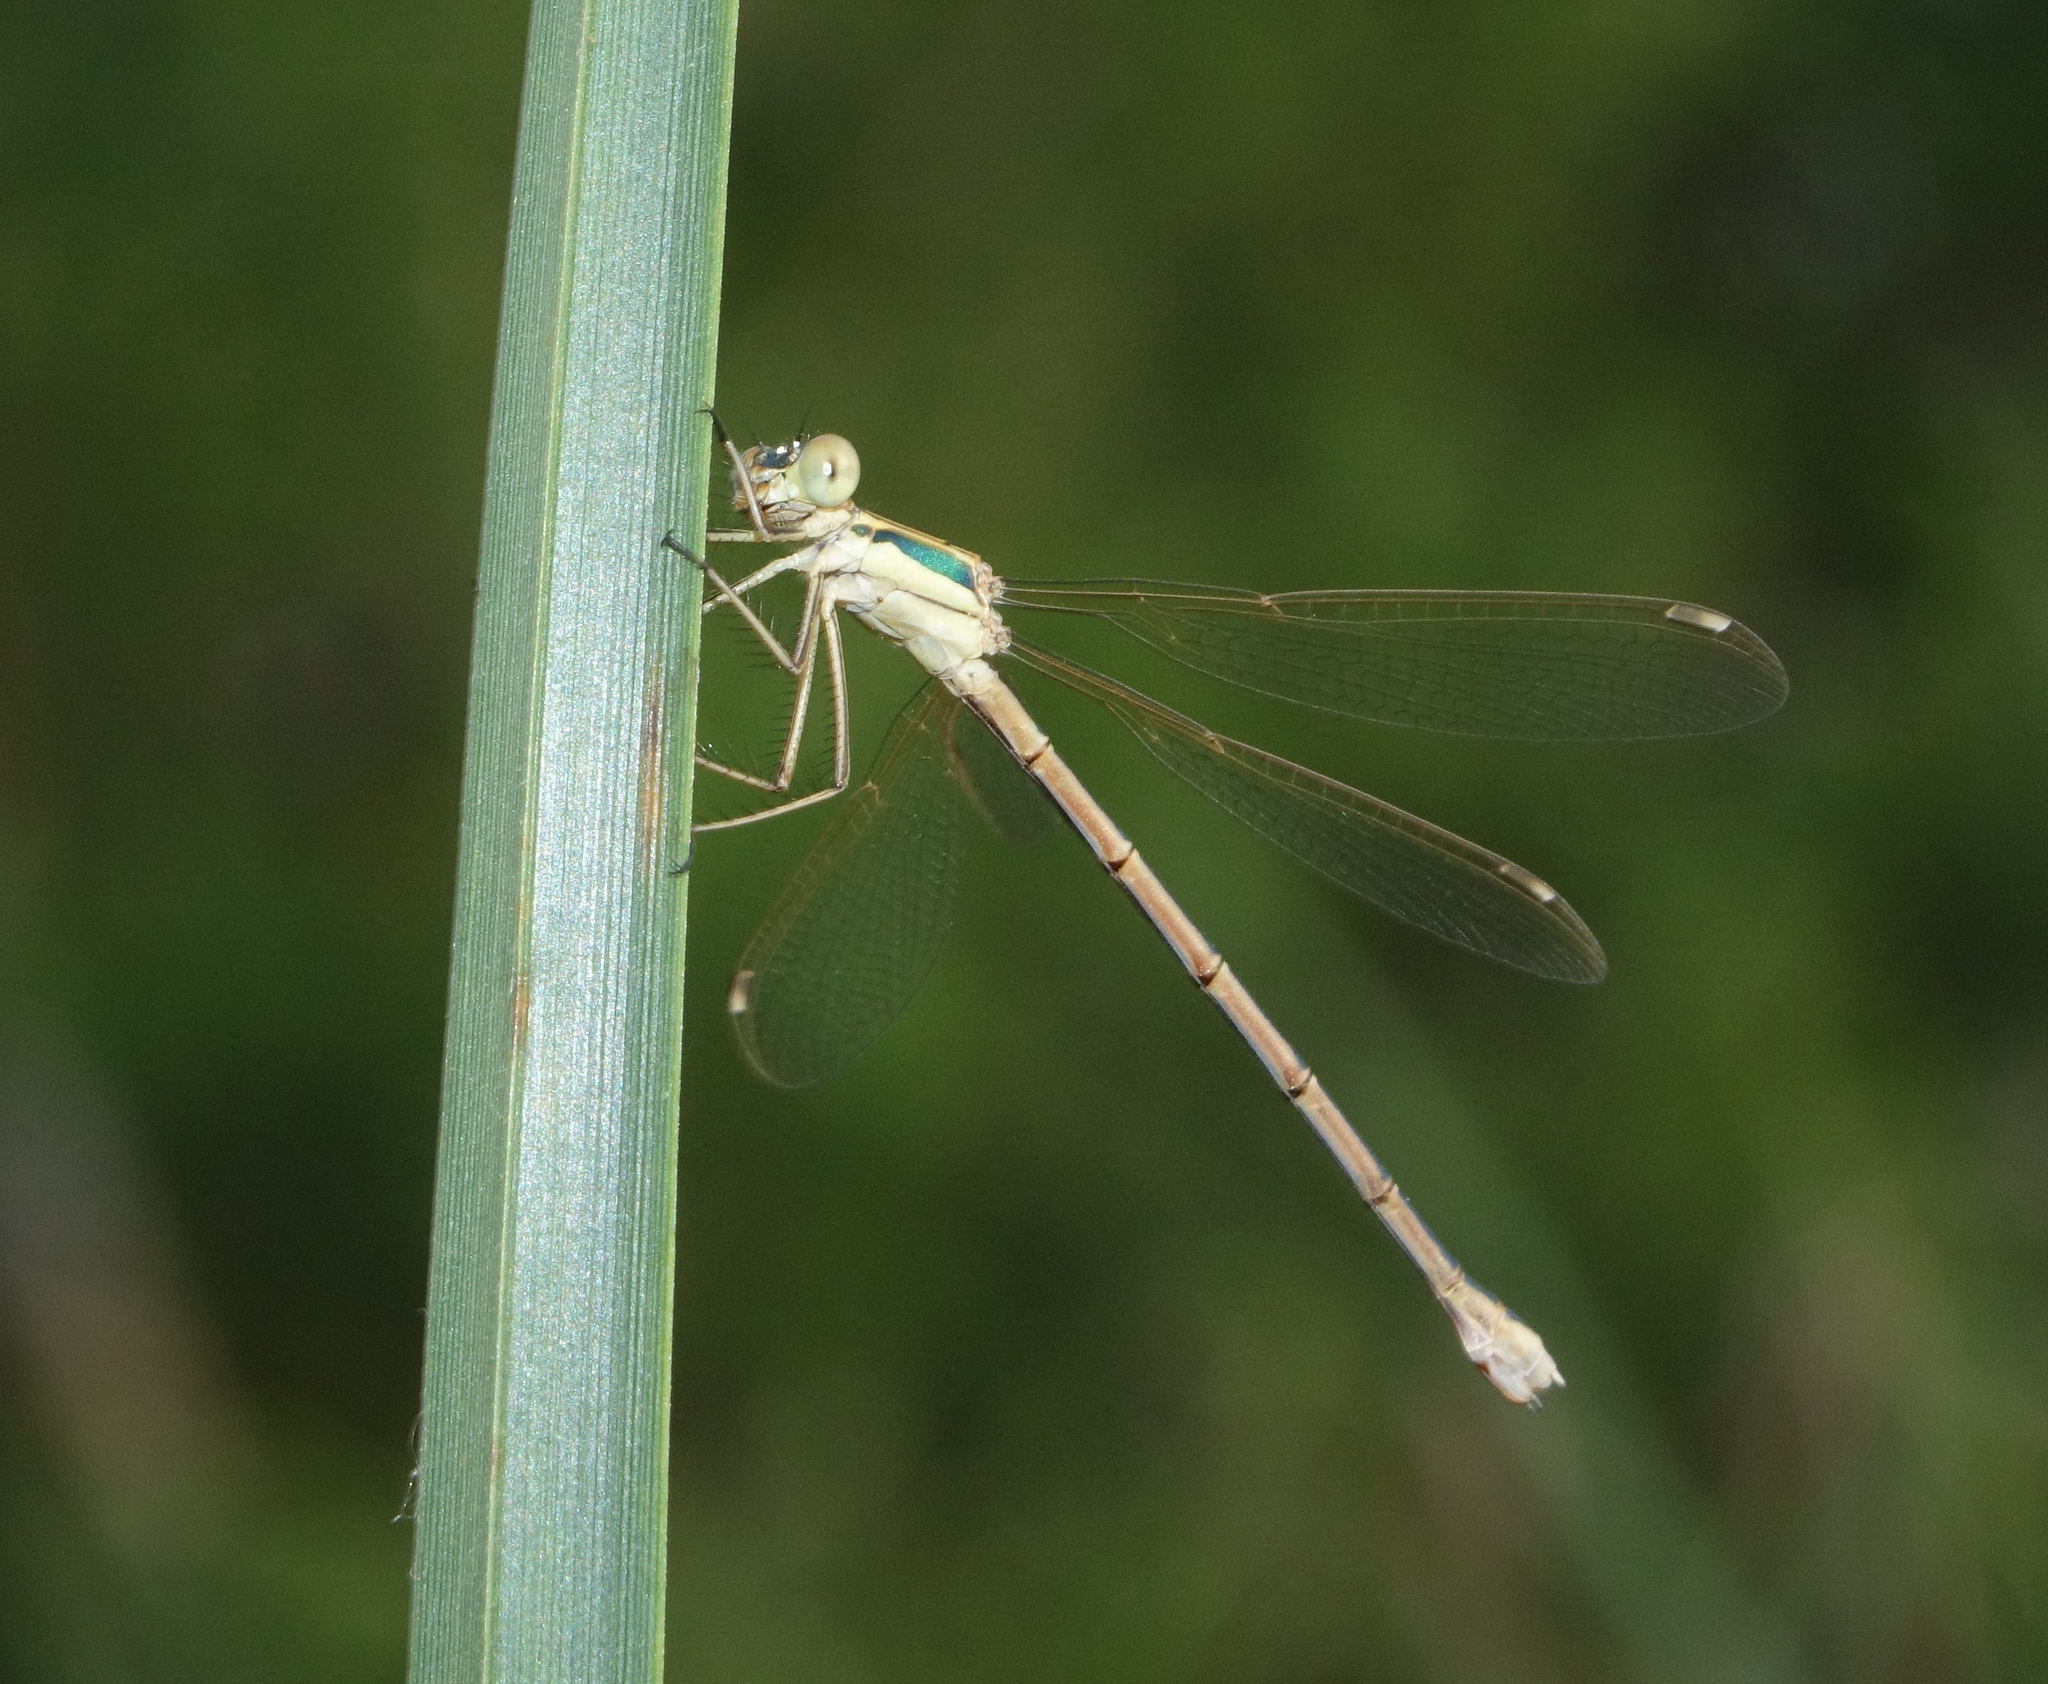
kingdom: Animalia
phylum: Arthropoda
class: Insecta
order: Odonata
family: Lestidae
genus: Lestes
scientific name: Lestes barbarus
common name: Migrant spreadwing
